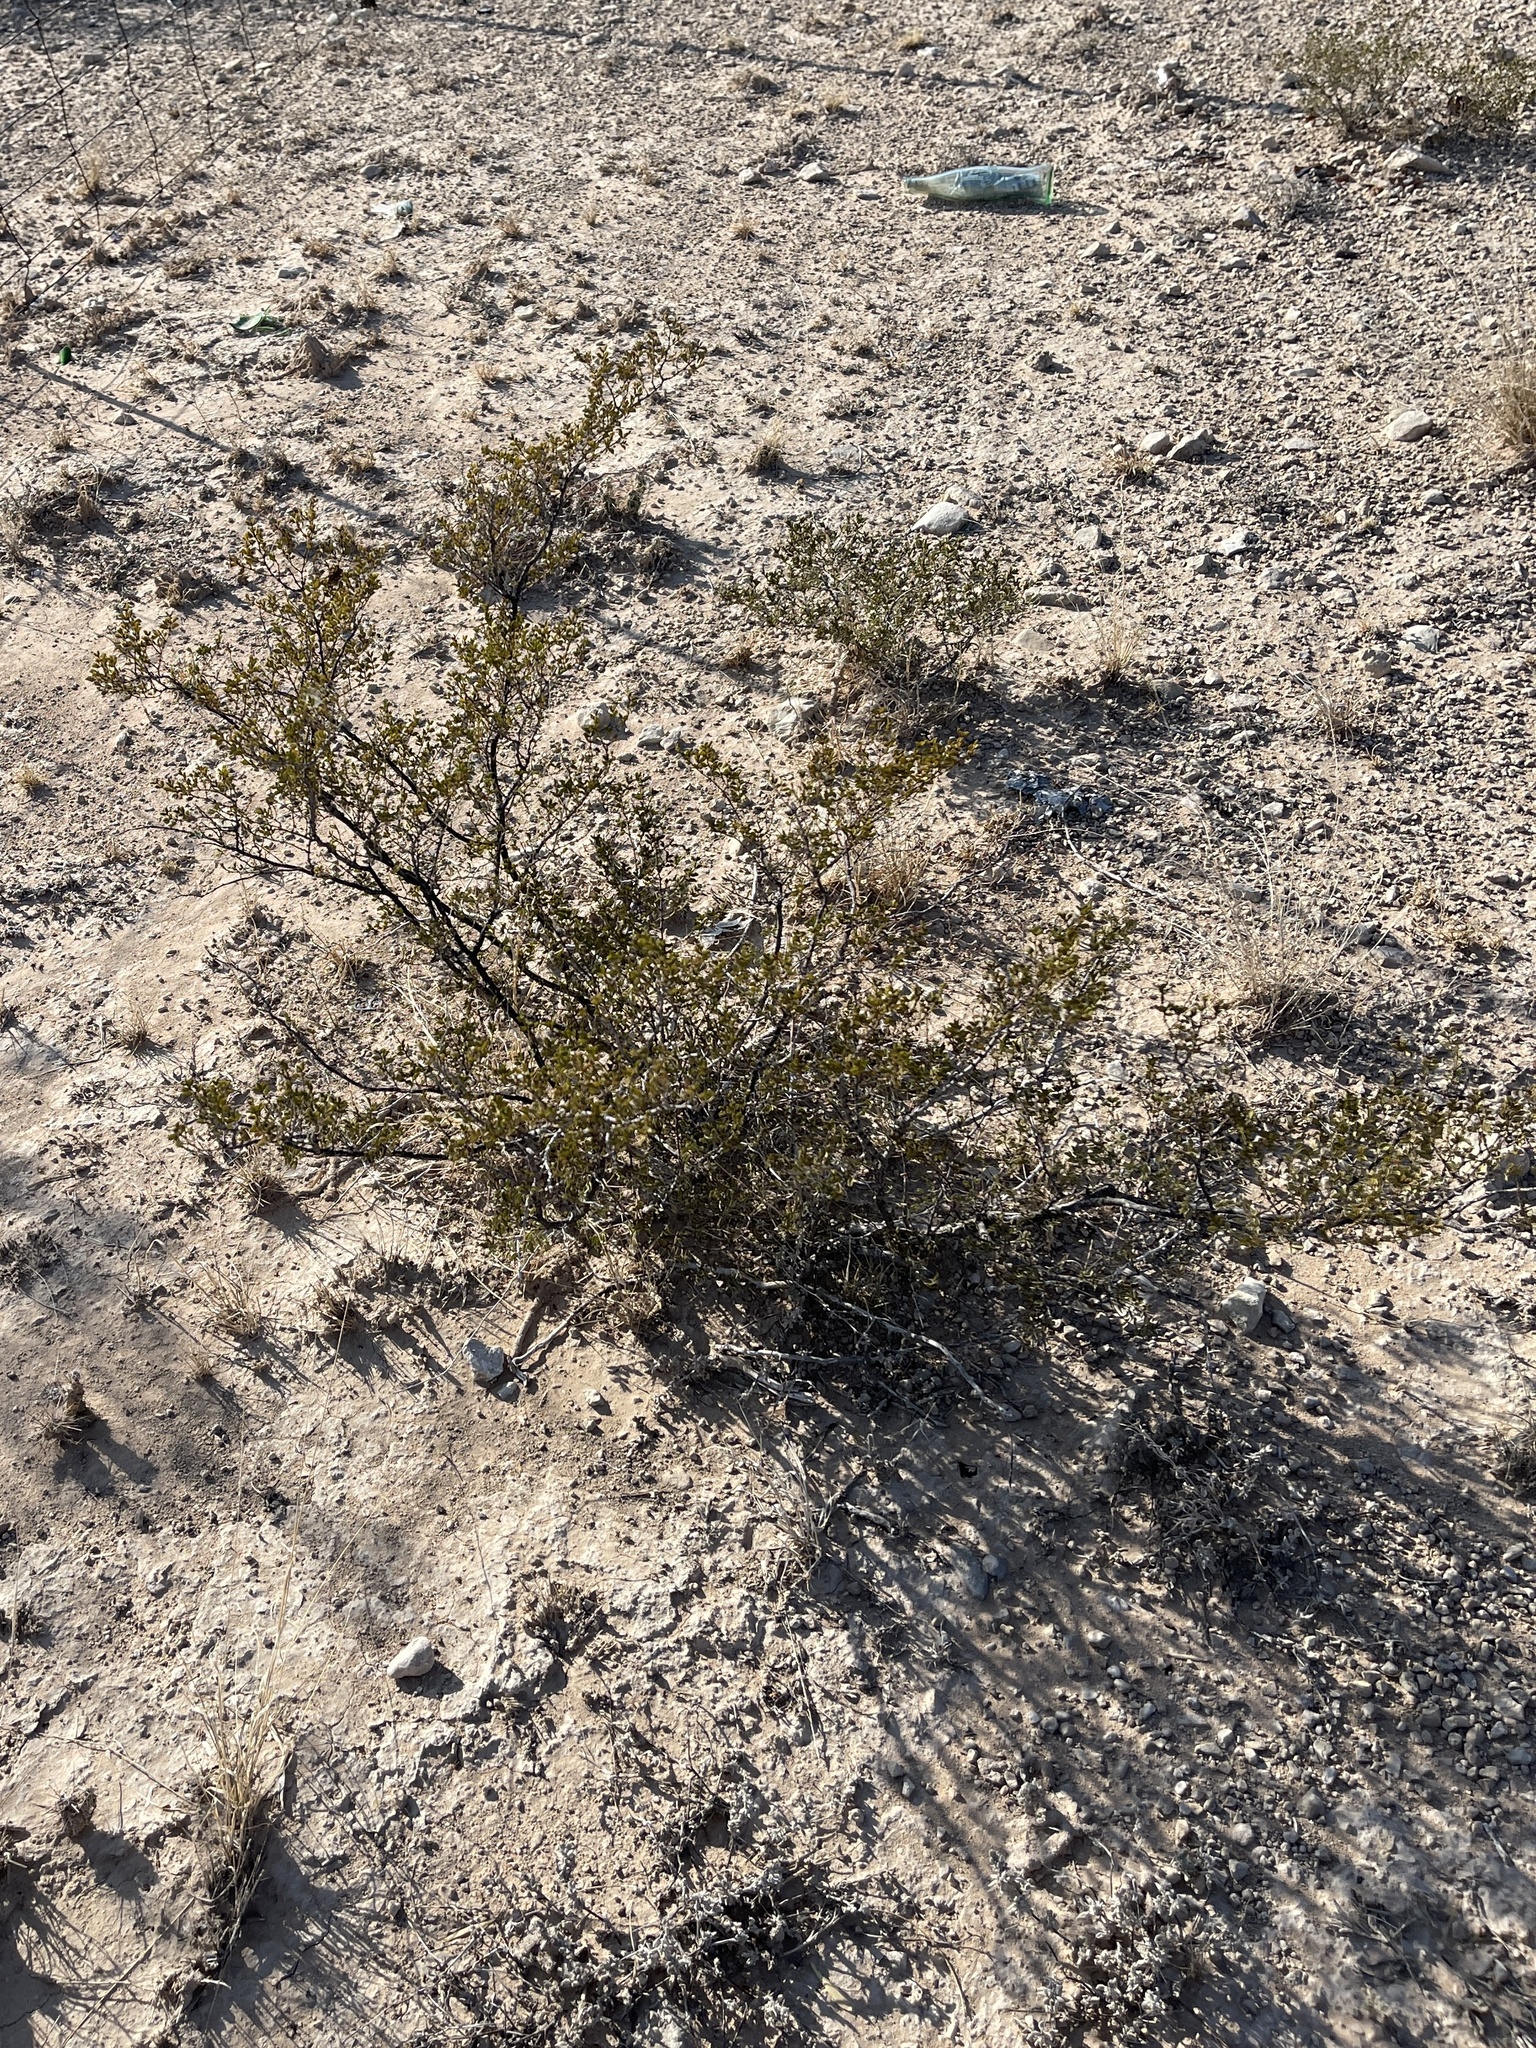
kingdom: Plantae
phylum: Tracheophyta
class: Magnoliopsida
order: Zygophyllales
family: Zygophyllaceae
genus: Larrea
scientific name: Larrea tridentata
